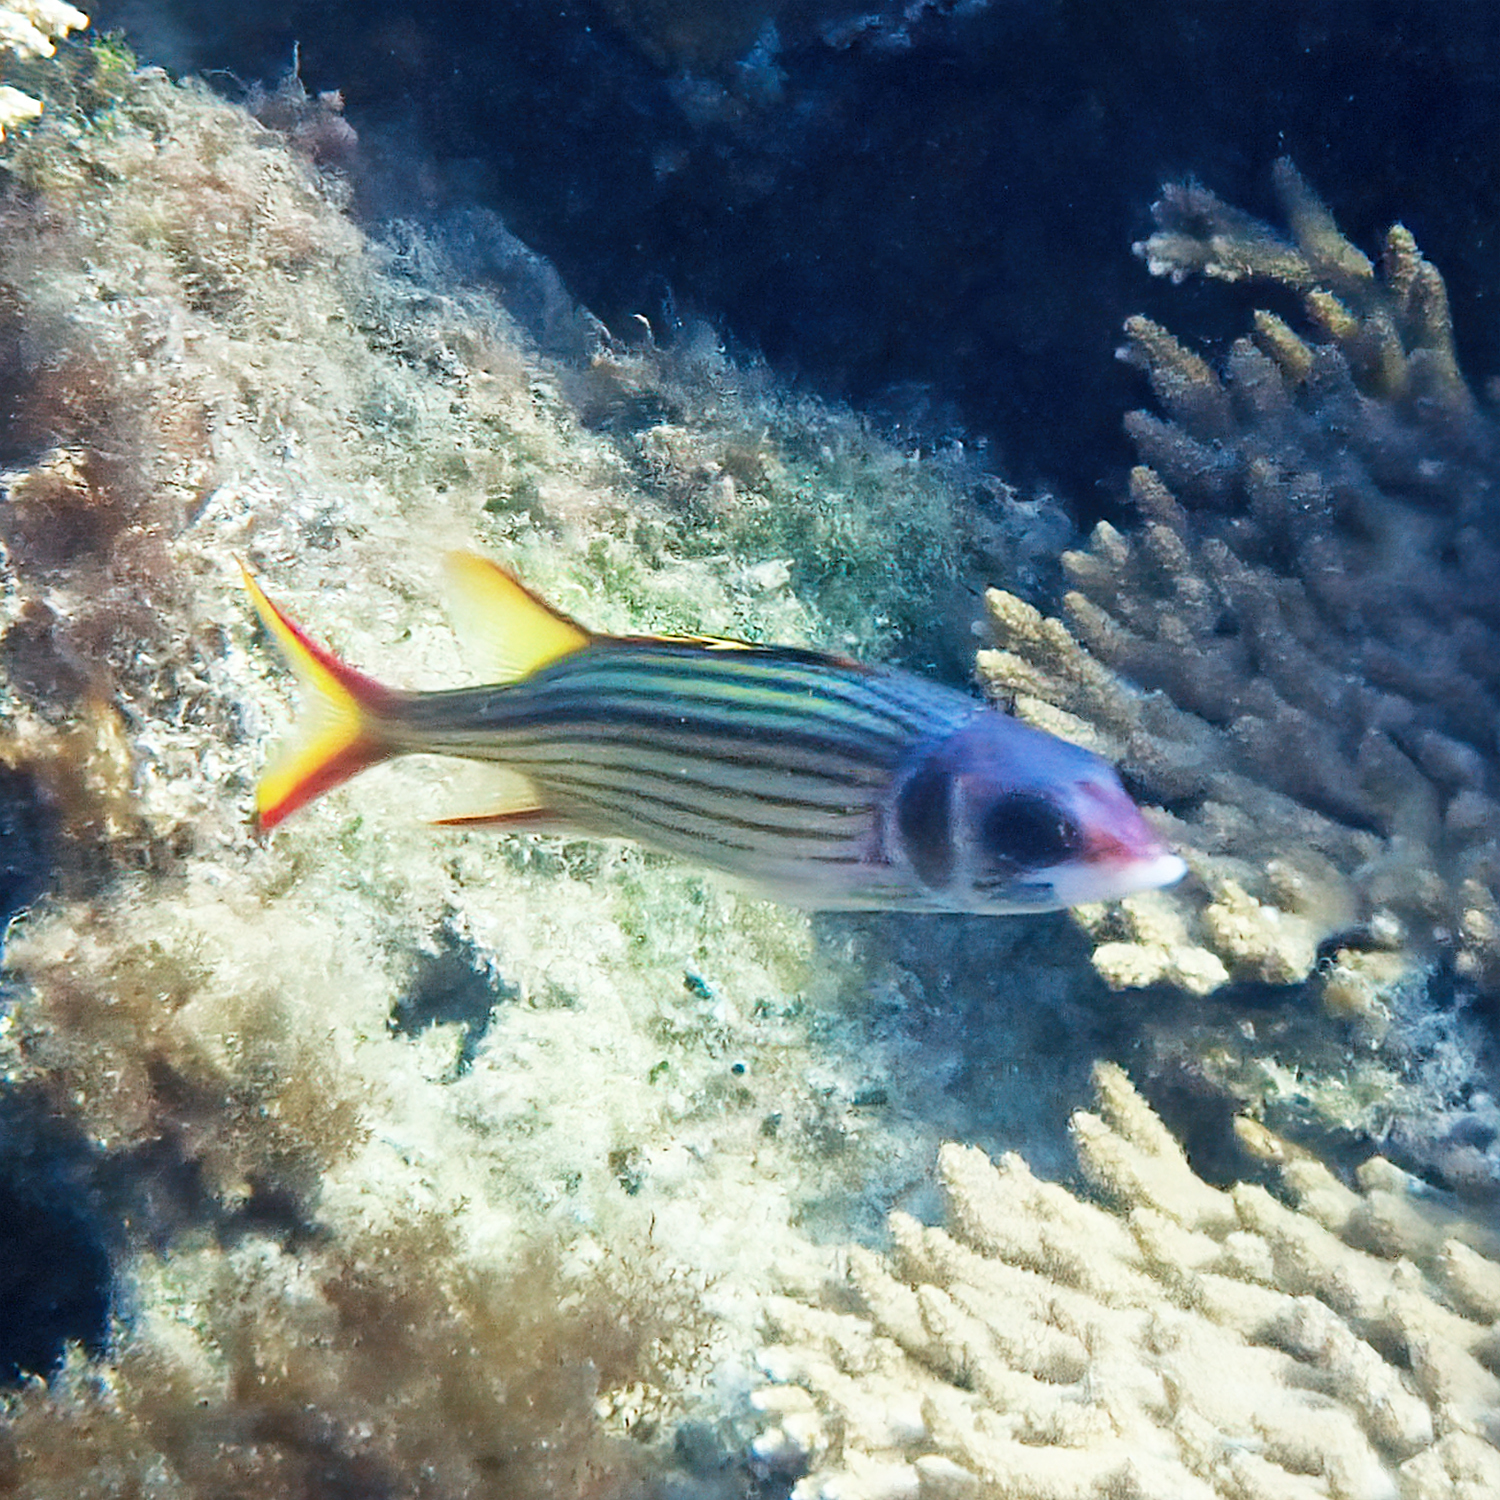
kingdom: Animalia
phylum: Chordata
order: Beryciformes
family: Holocentridae
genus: Neoniphon
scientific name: Neoniphon sammara
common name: Sammara squirrelfish
